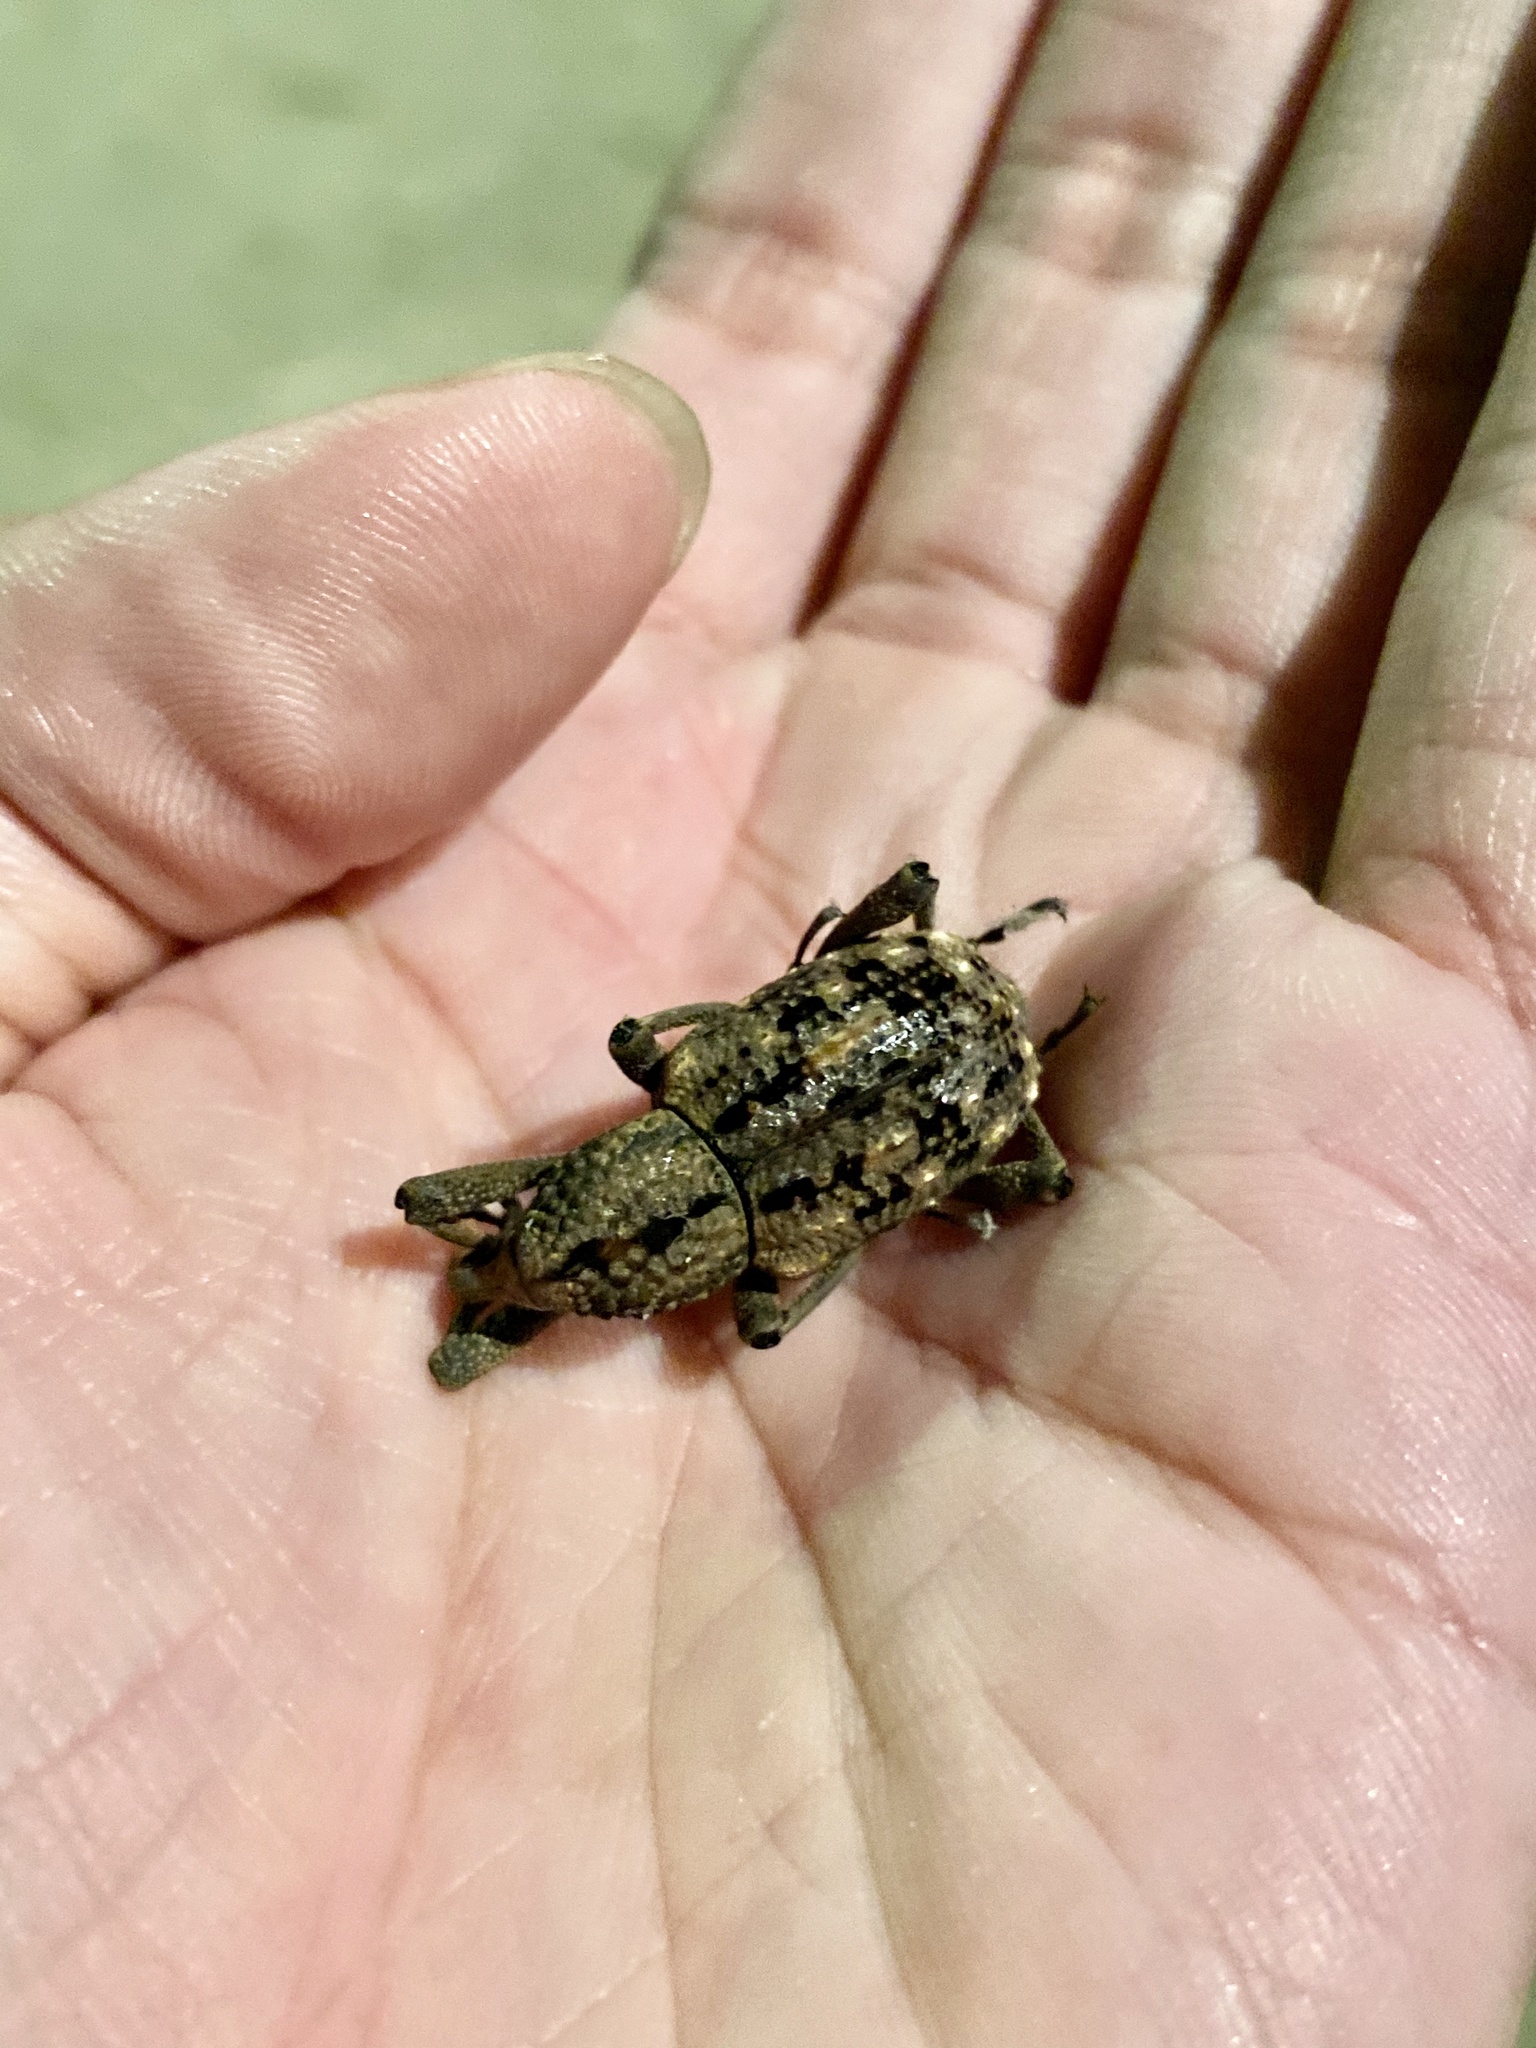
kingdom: Animalia
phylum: Arthropoda
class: Insecta
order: Coleoptera
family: Dryophthoridae
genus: Sipalinus
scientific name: Sipalinus gigas
